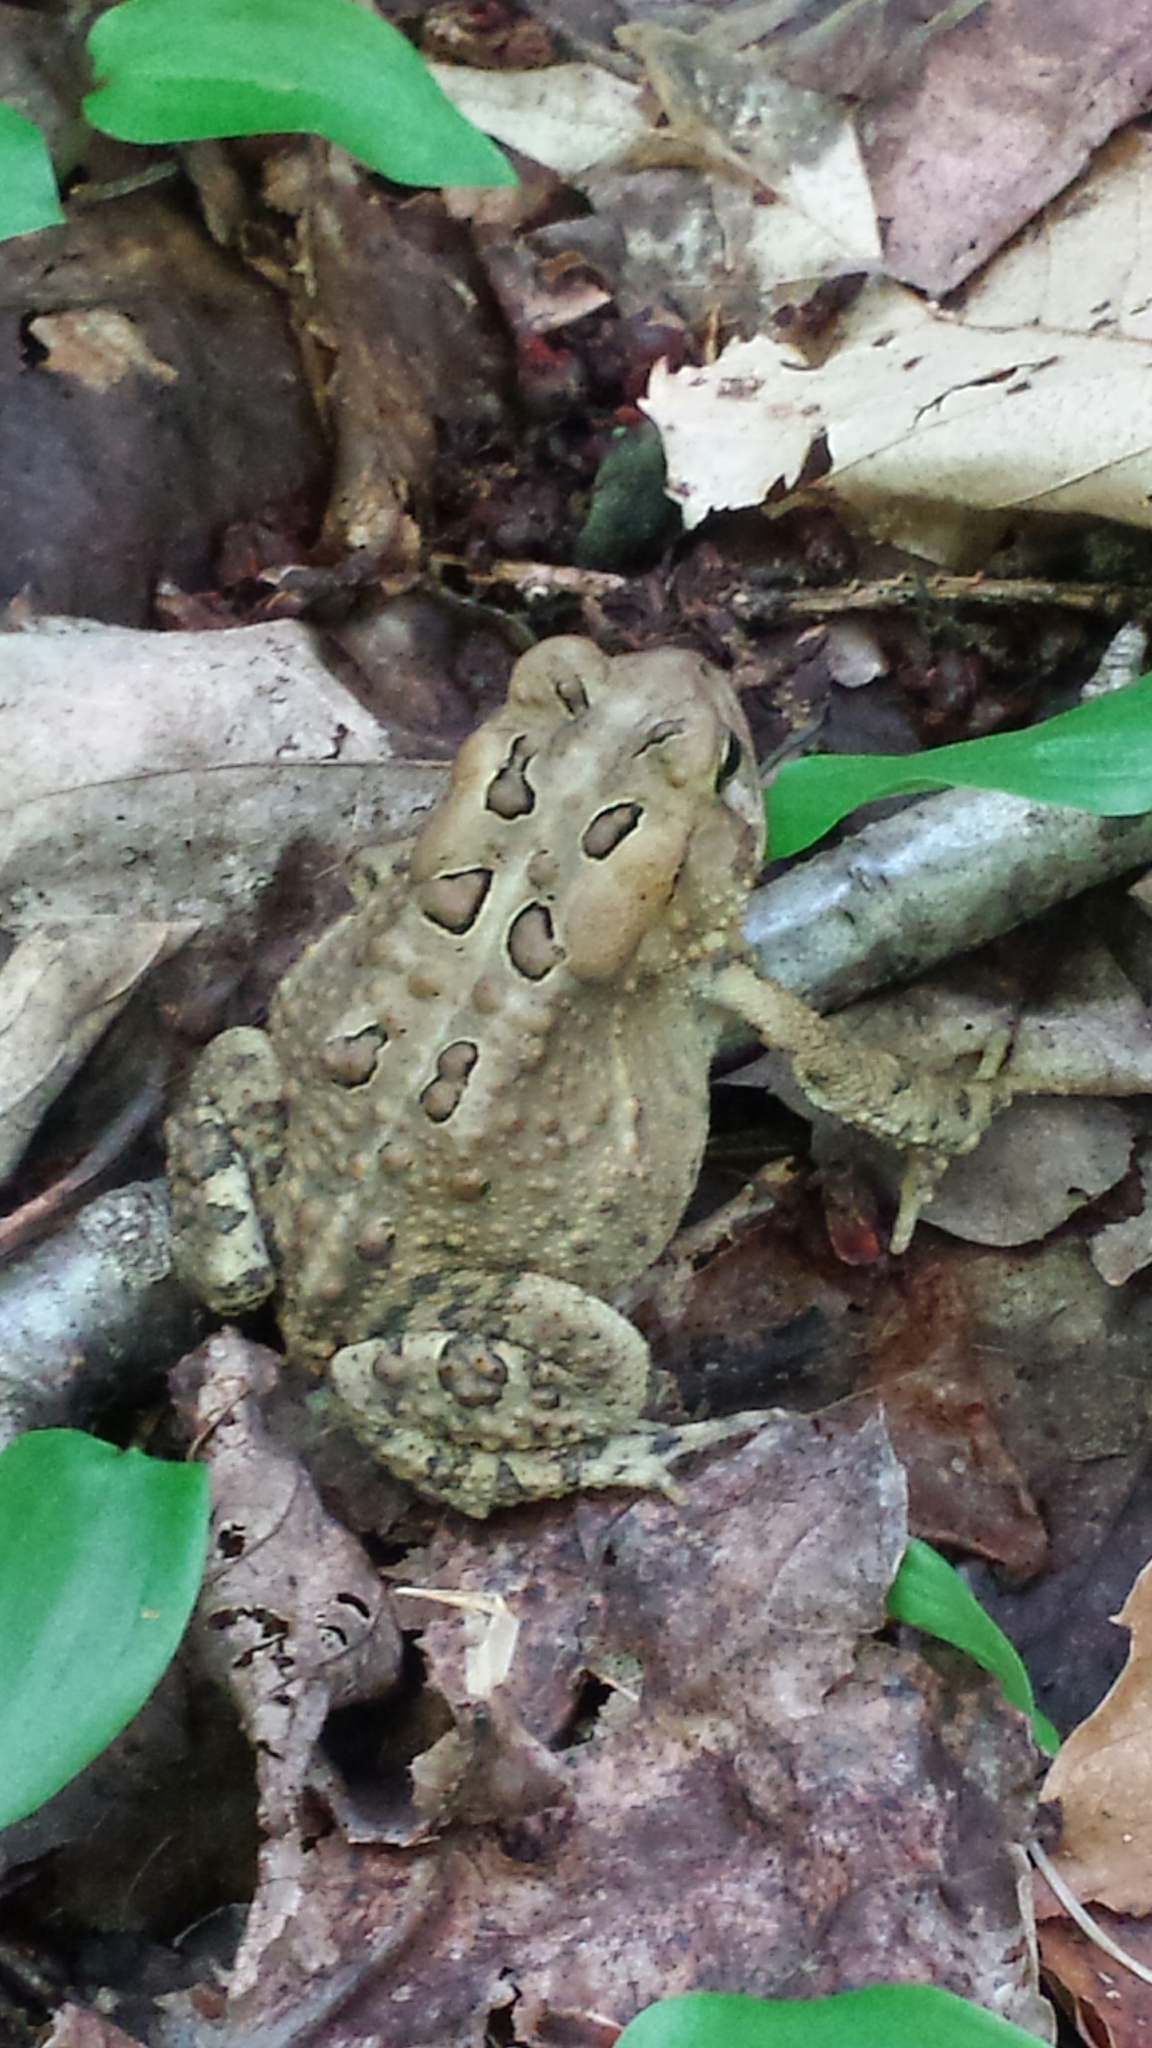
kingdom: Animalia
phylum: Chordata
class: Amphibia
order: Anura
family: Bufonidae
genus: Anaxyrus
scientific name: Anaxyrus americanus
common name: American toad
